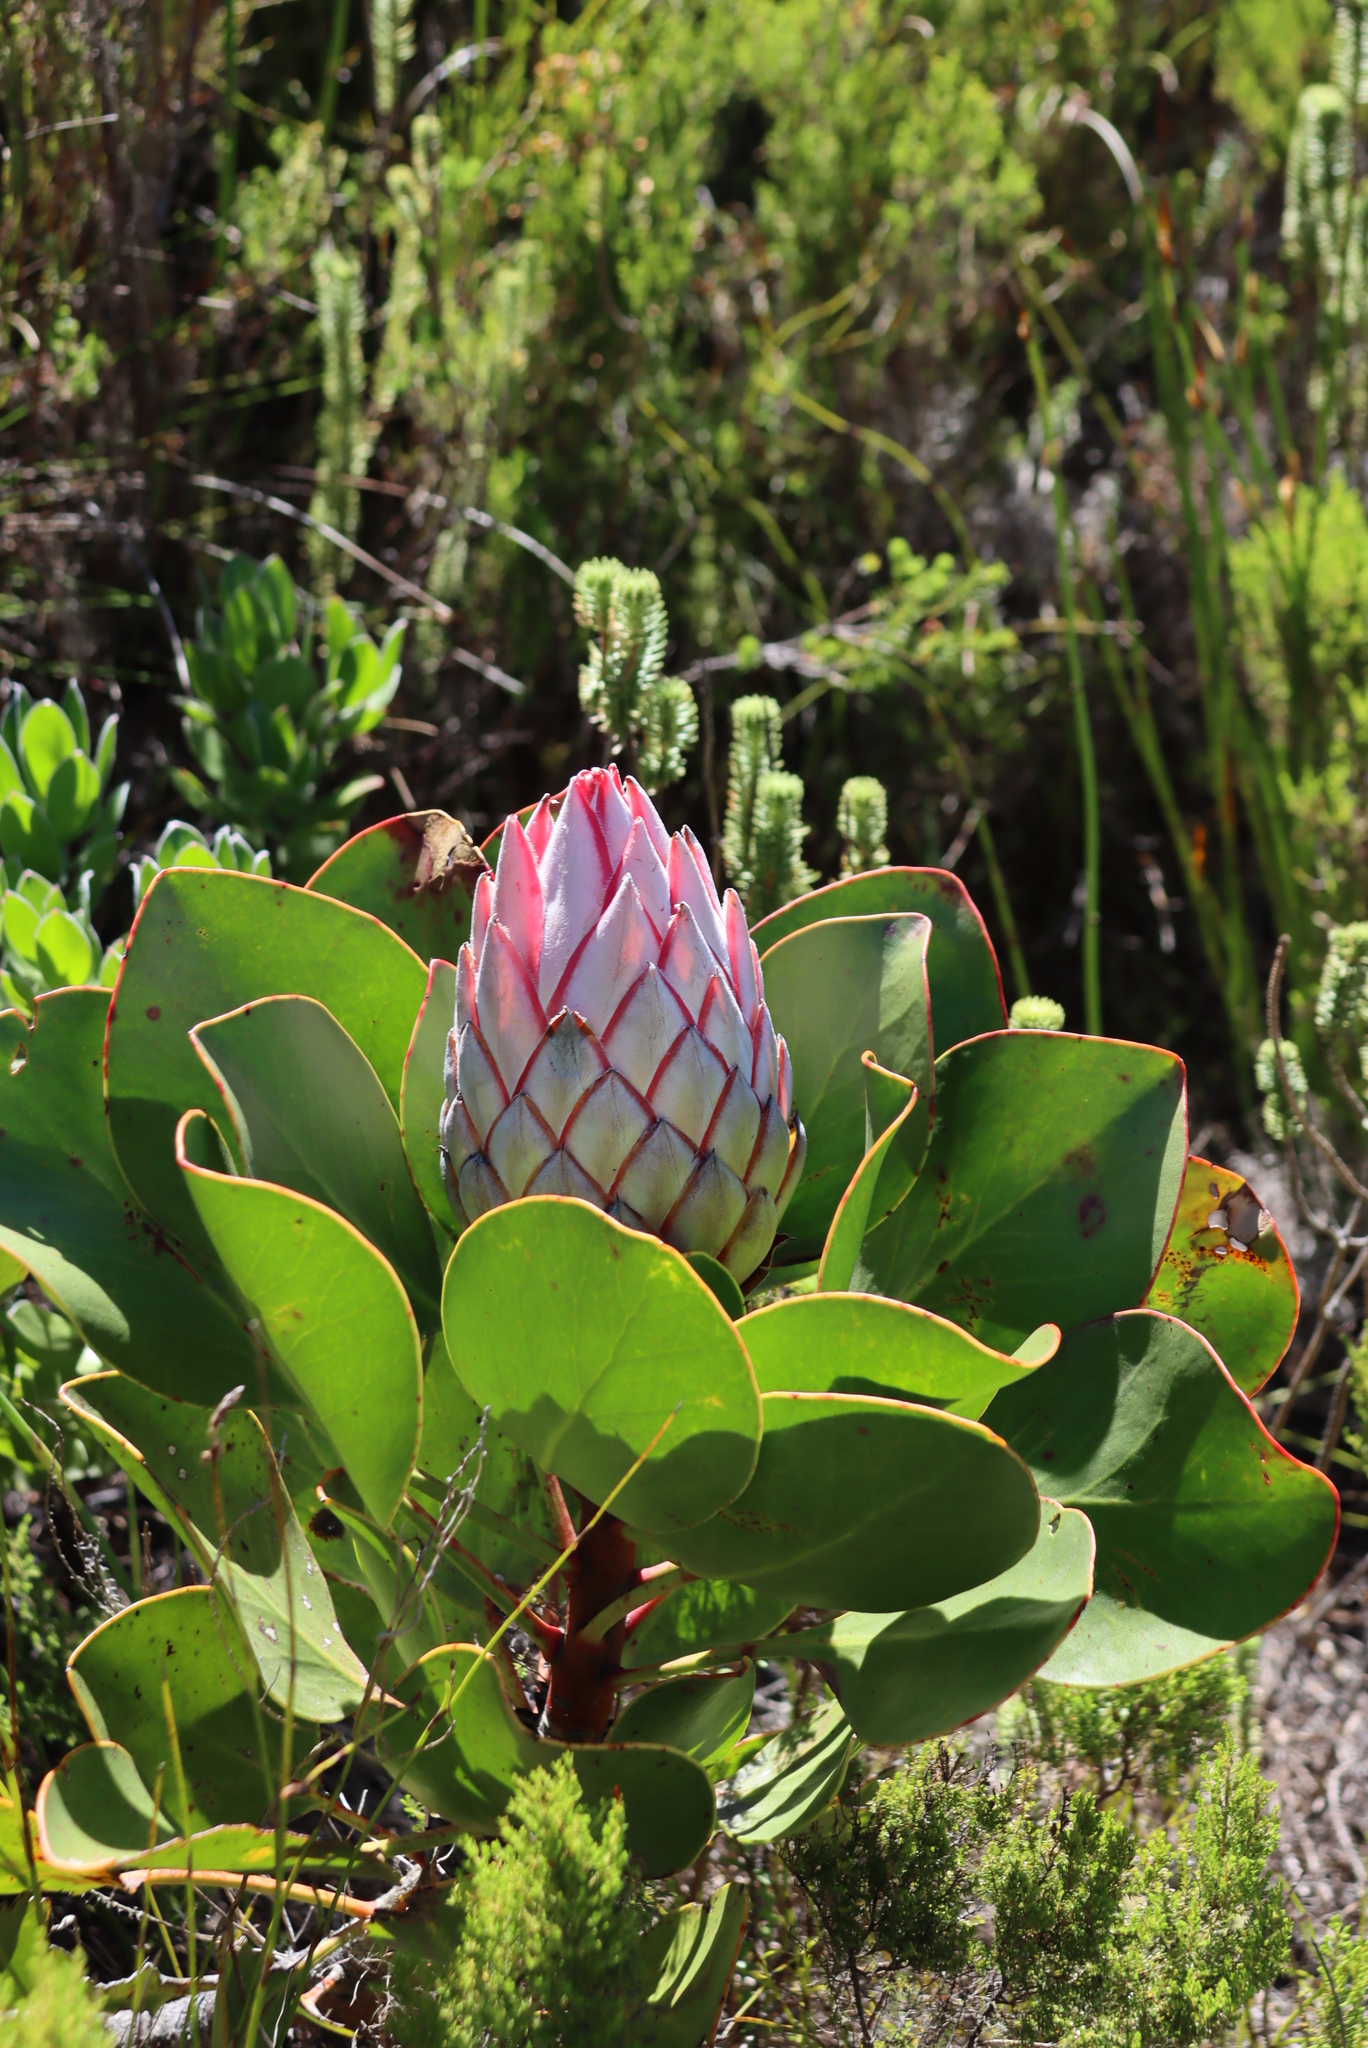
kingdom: Plantae
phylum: Tracheophyta
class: Magnoliopsida
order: Proteales
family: Proteaceae
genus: Protea
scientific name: Protea cynaroides
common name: King protea
